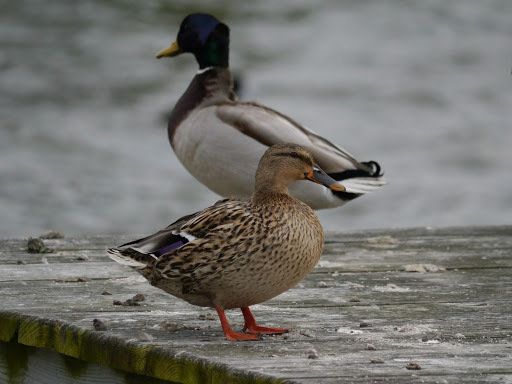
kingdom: Animalia
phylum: Chordata
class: Aves
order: Anseriformes
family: Anatidae
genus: Anas
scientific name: Anas platyrhynchos
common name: Mallard
